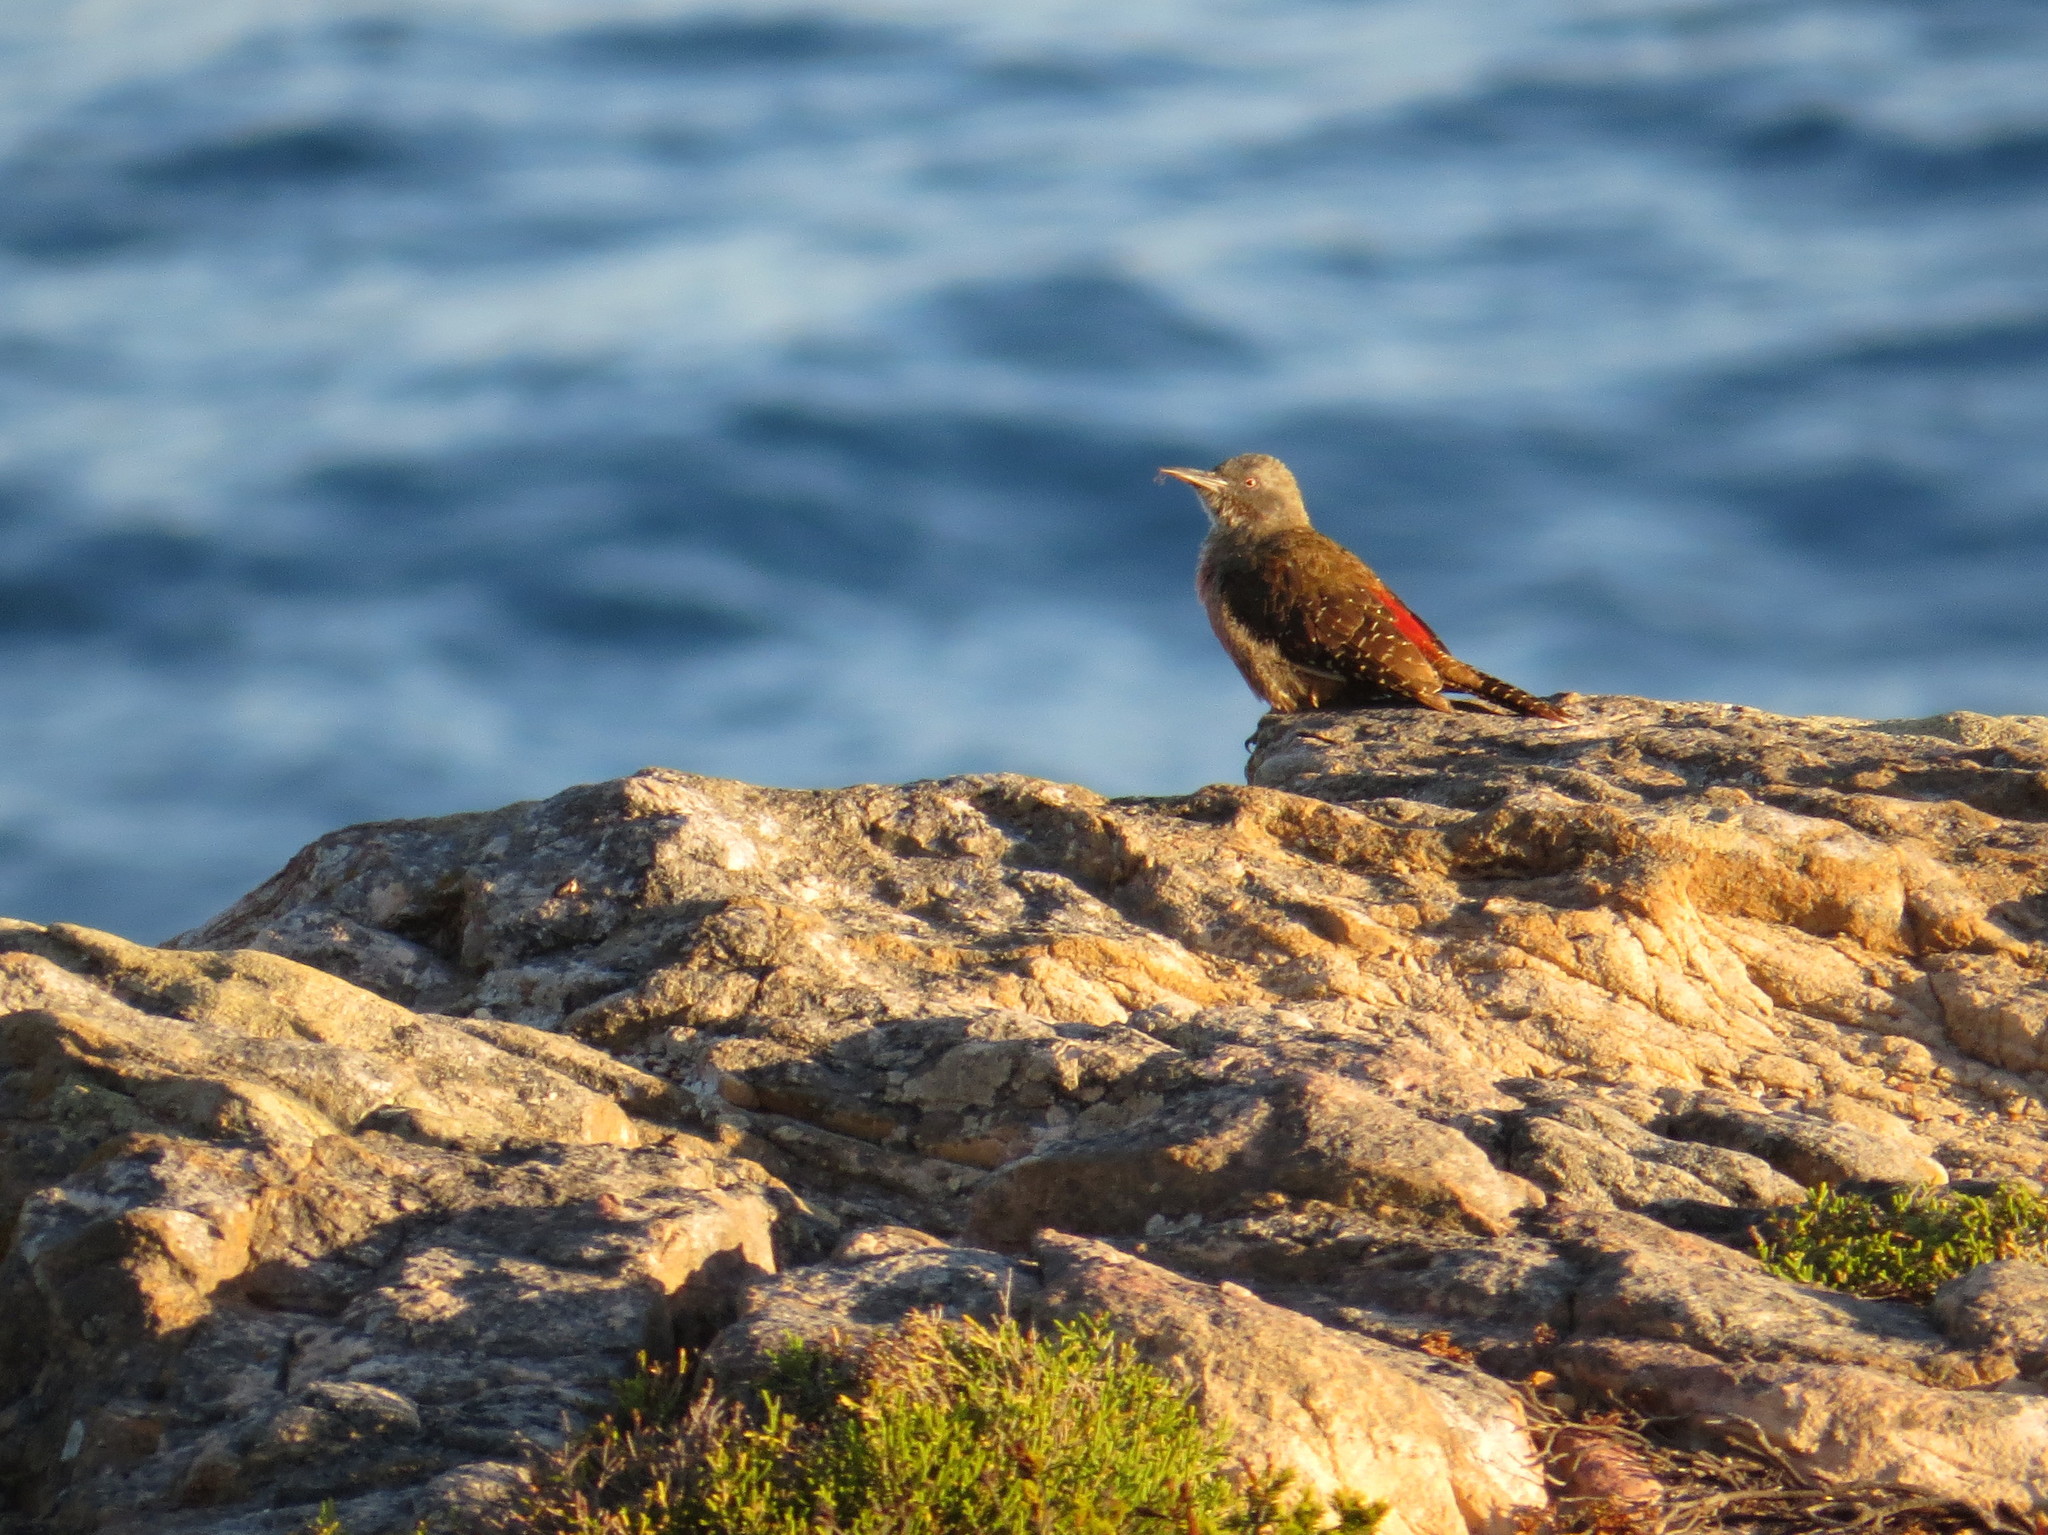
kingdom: Animalia
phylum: Chordata
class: Aves
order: Piciformes
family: Picidae
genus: Geocolaptes
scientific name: Geocolaptes olivaceus
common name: Ground woodpecker
